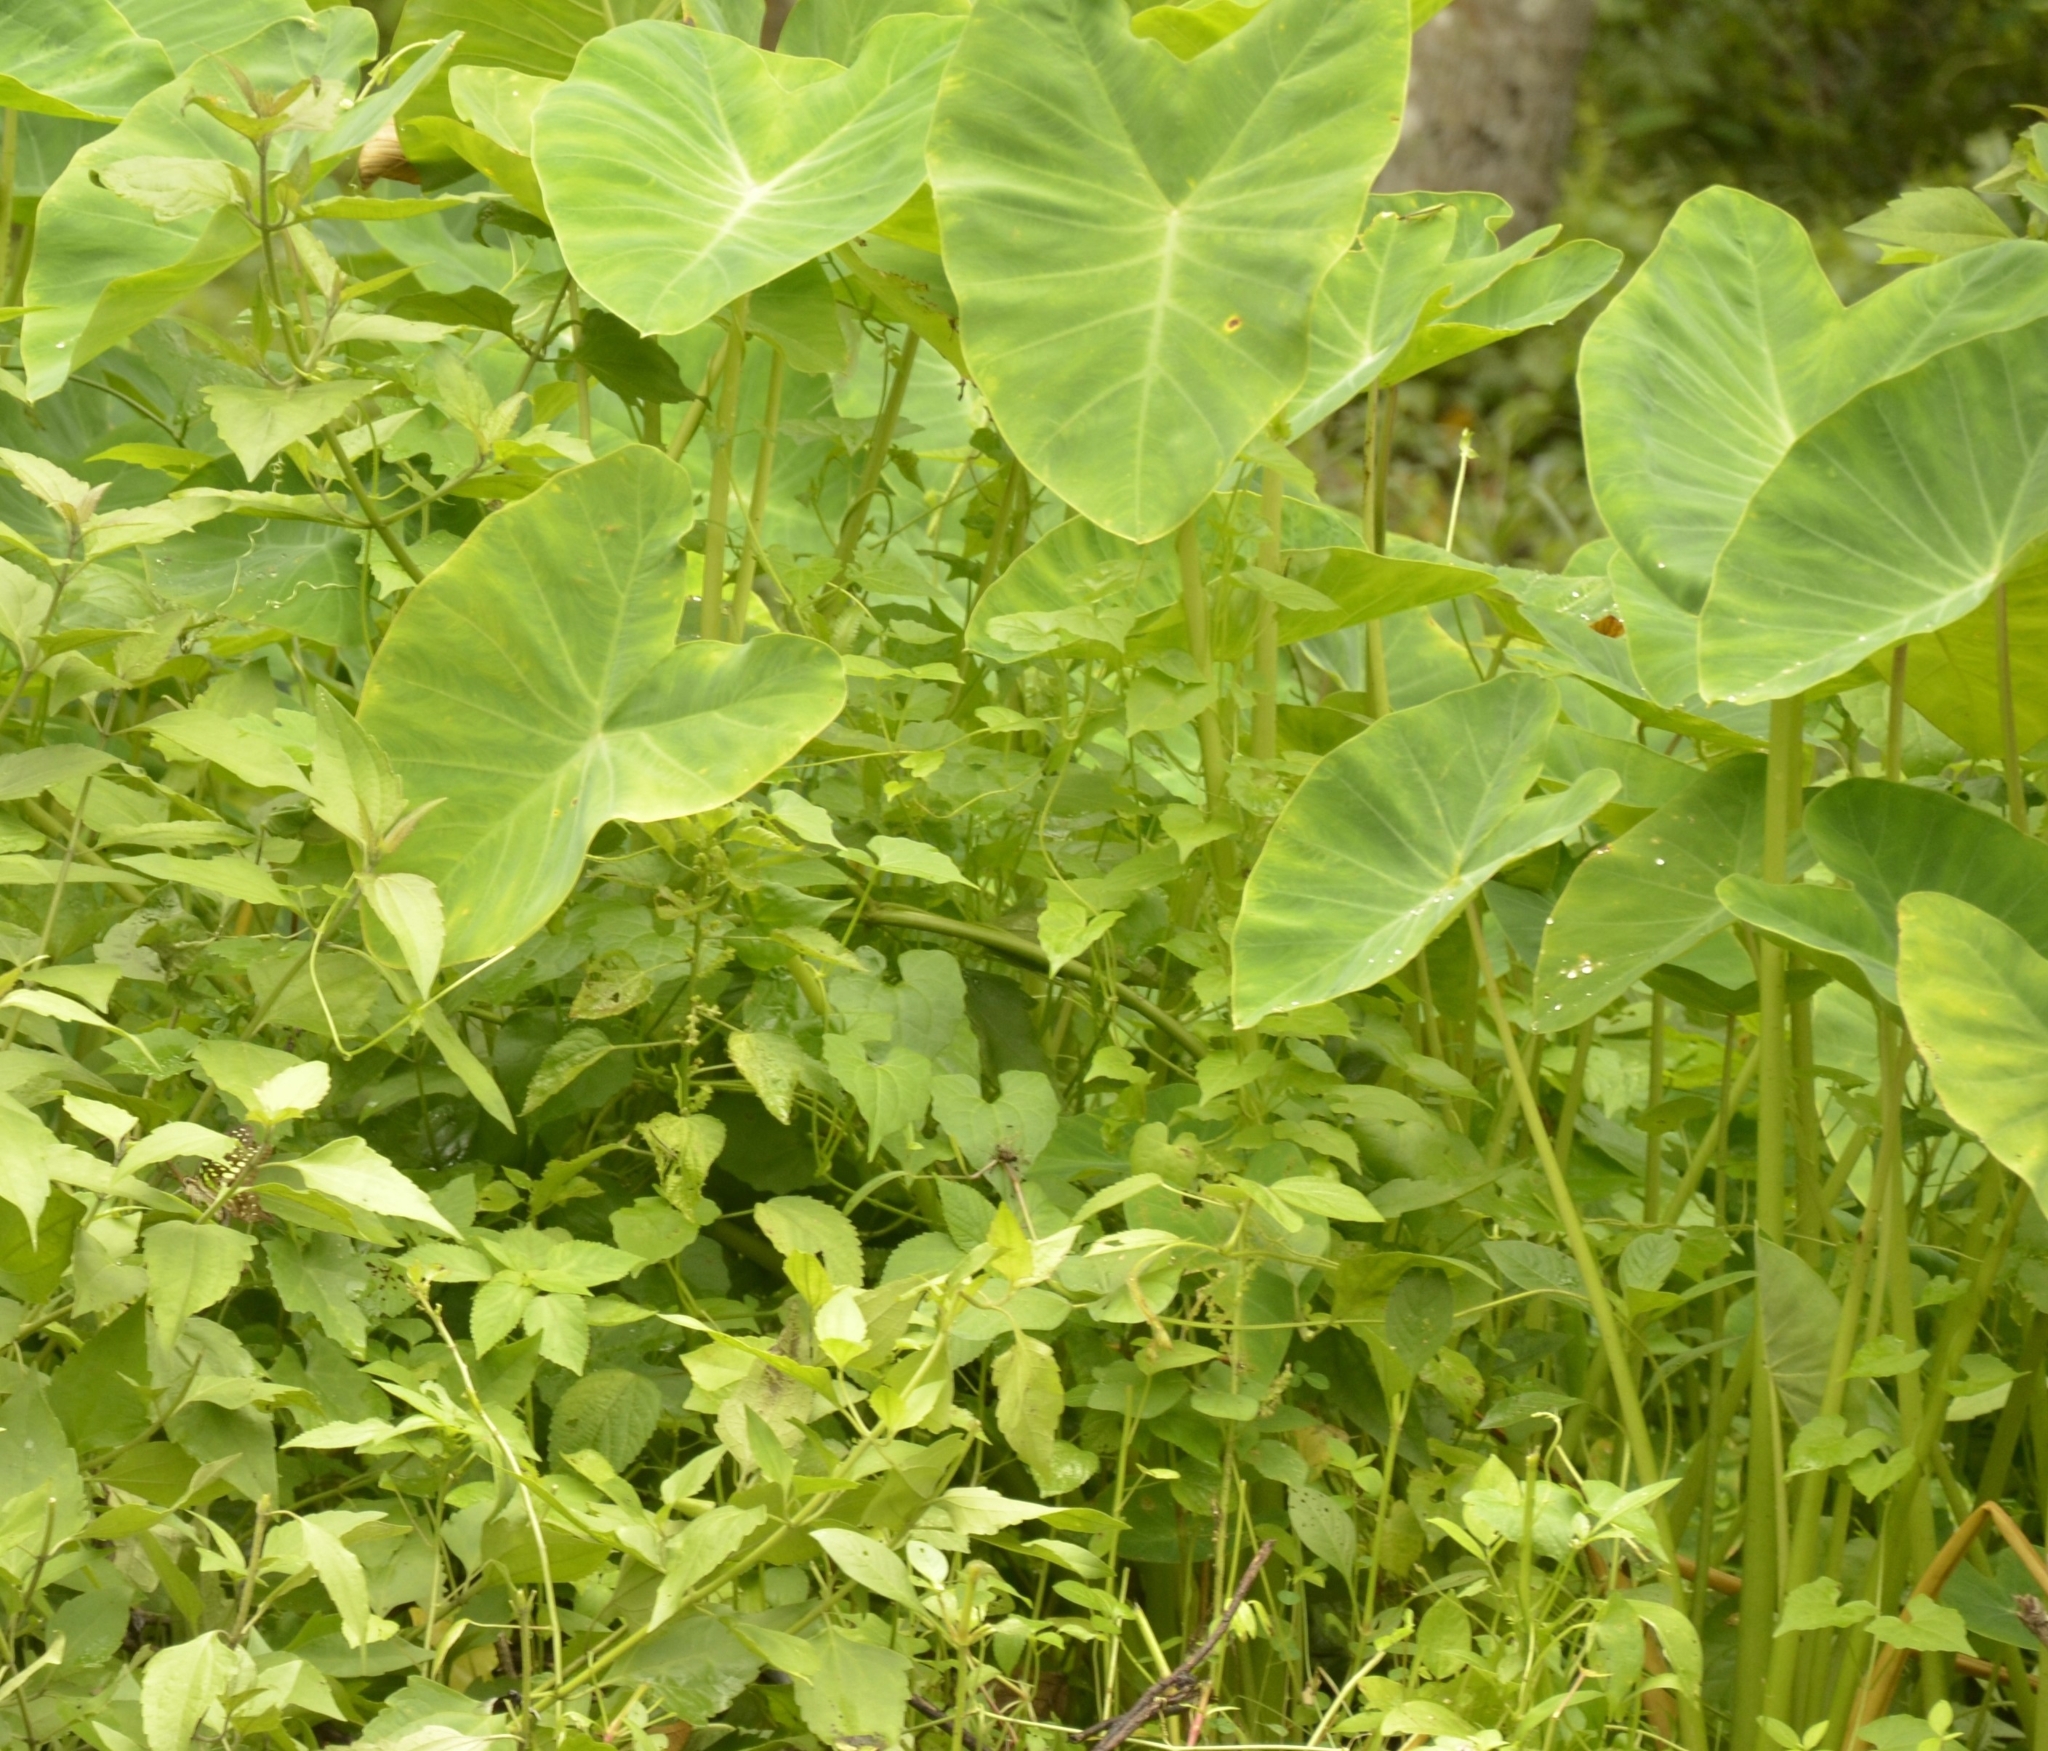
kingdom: Plantae
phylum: Tracheophyta
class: Liliopsida
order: Alismatales
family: Araceae
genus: Colocasia
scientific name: Colocasia esculenta
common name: Taro
